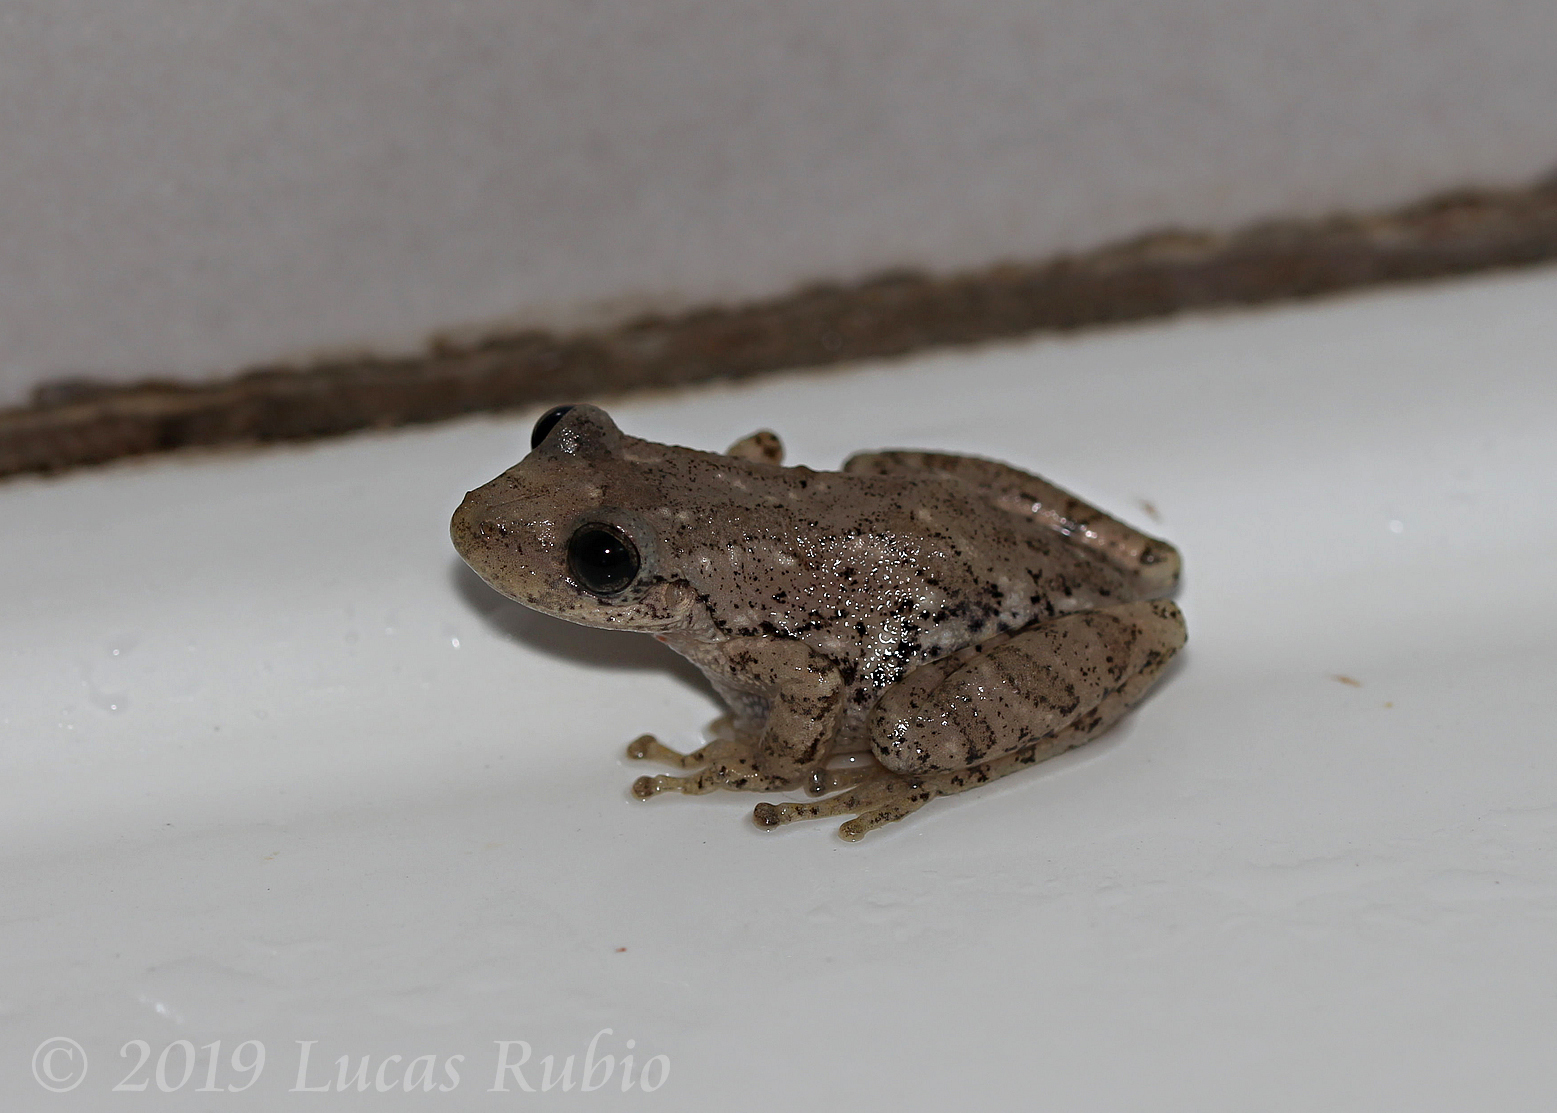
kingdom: Animalia
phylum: Chordata
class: Amphibia
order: Anura
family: Hylidae
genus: Scinax
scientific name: Scinax granulatus
